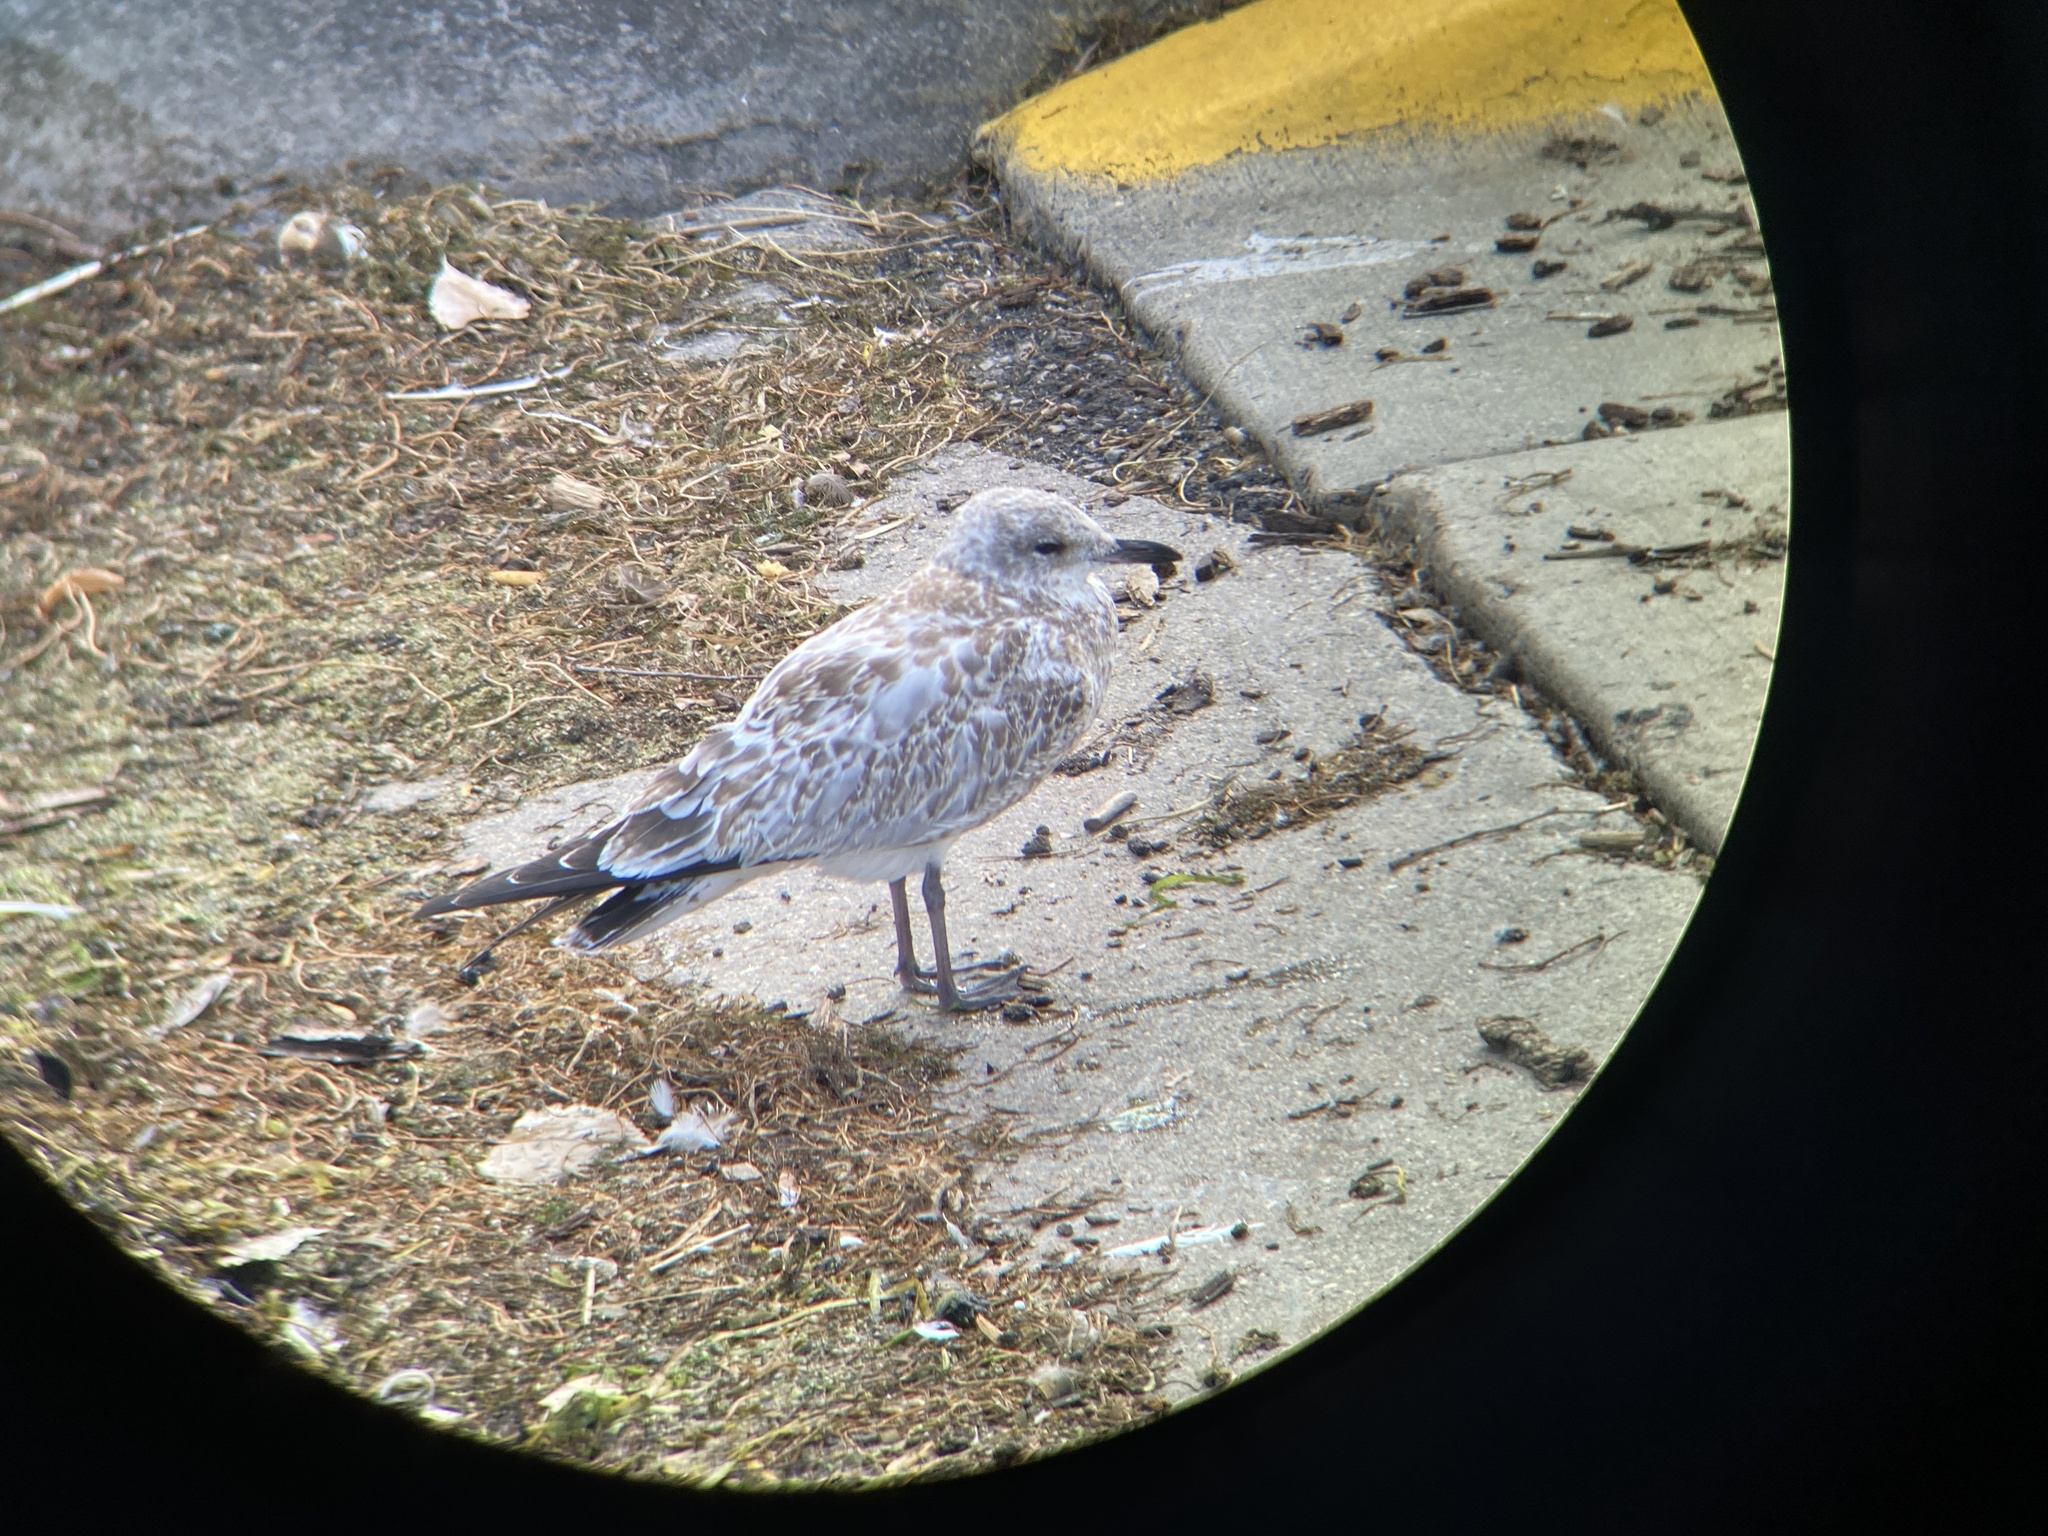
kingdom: Animalia
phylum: Chordata
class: Aves
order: Charadriiformes
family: Laridae
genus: Larus
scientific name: Larus delawarensis
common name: Ring-billed gull
